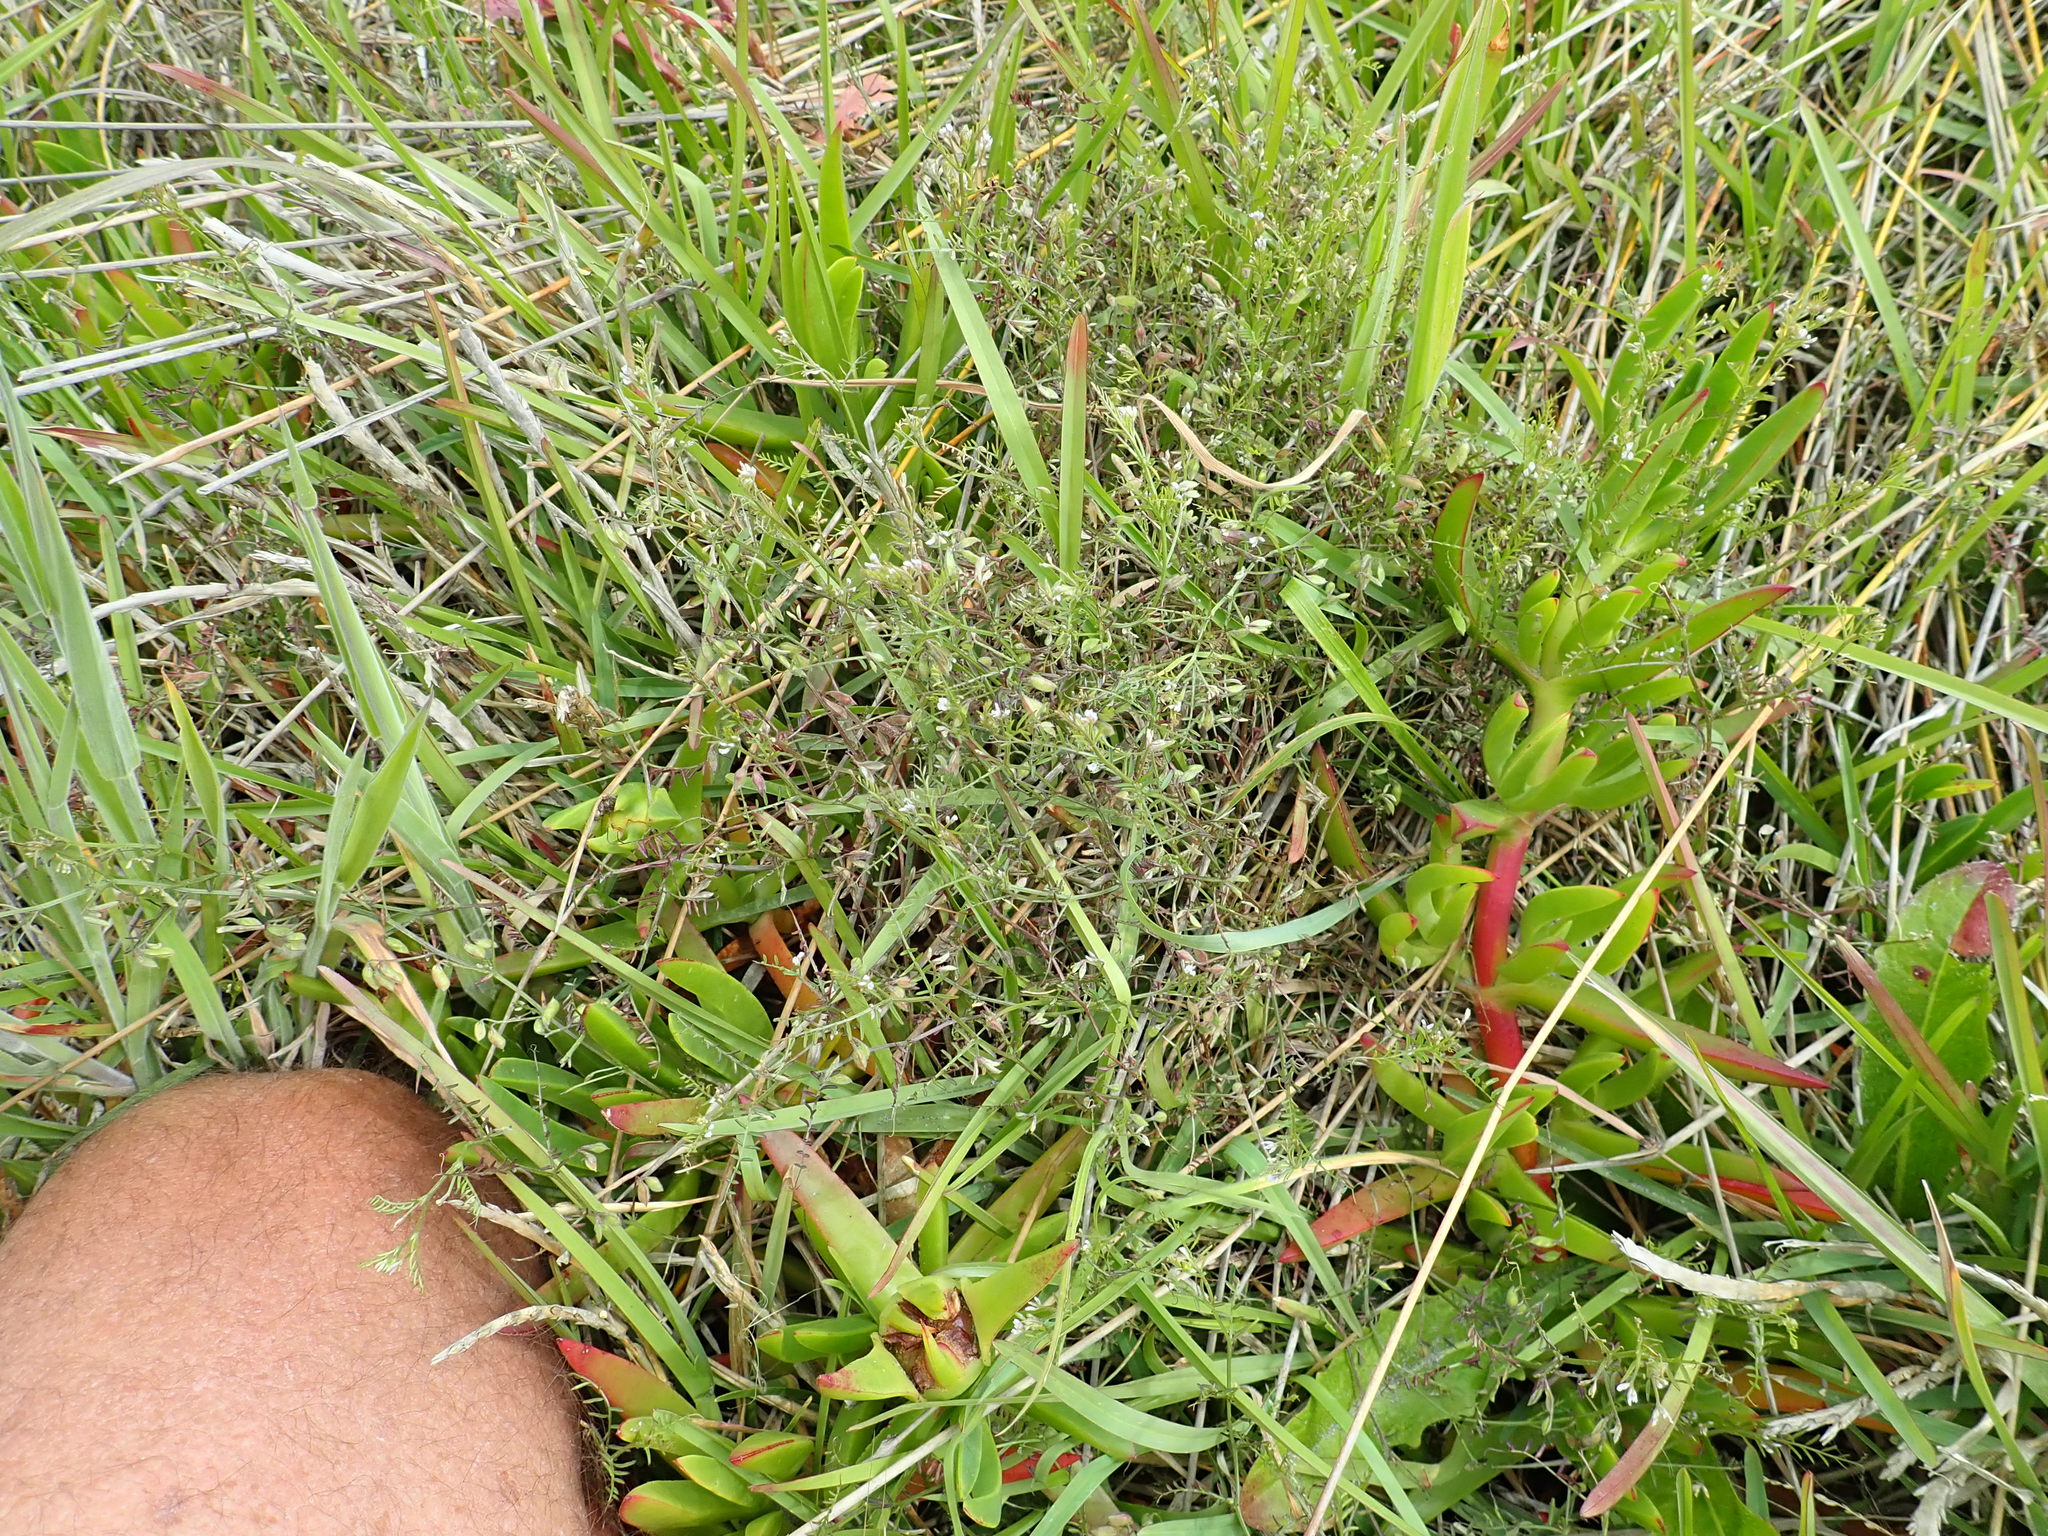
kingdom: Plantae
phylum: Tracheophyta
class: Magnoliopsida
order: Fabales
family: Fabaceae
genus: Vicia
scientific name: Vicia hirsuta
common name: Tiny vetch
